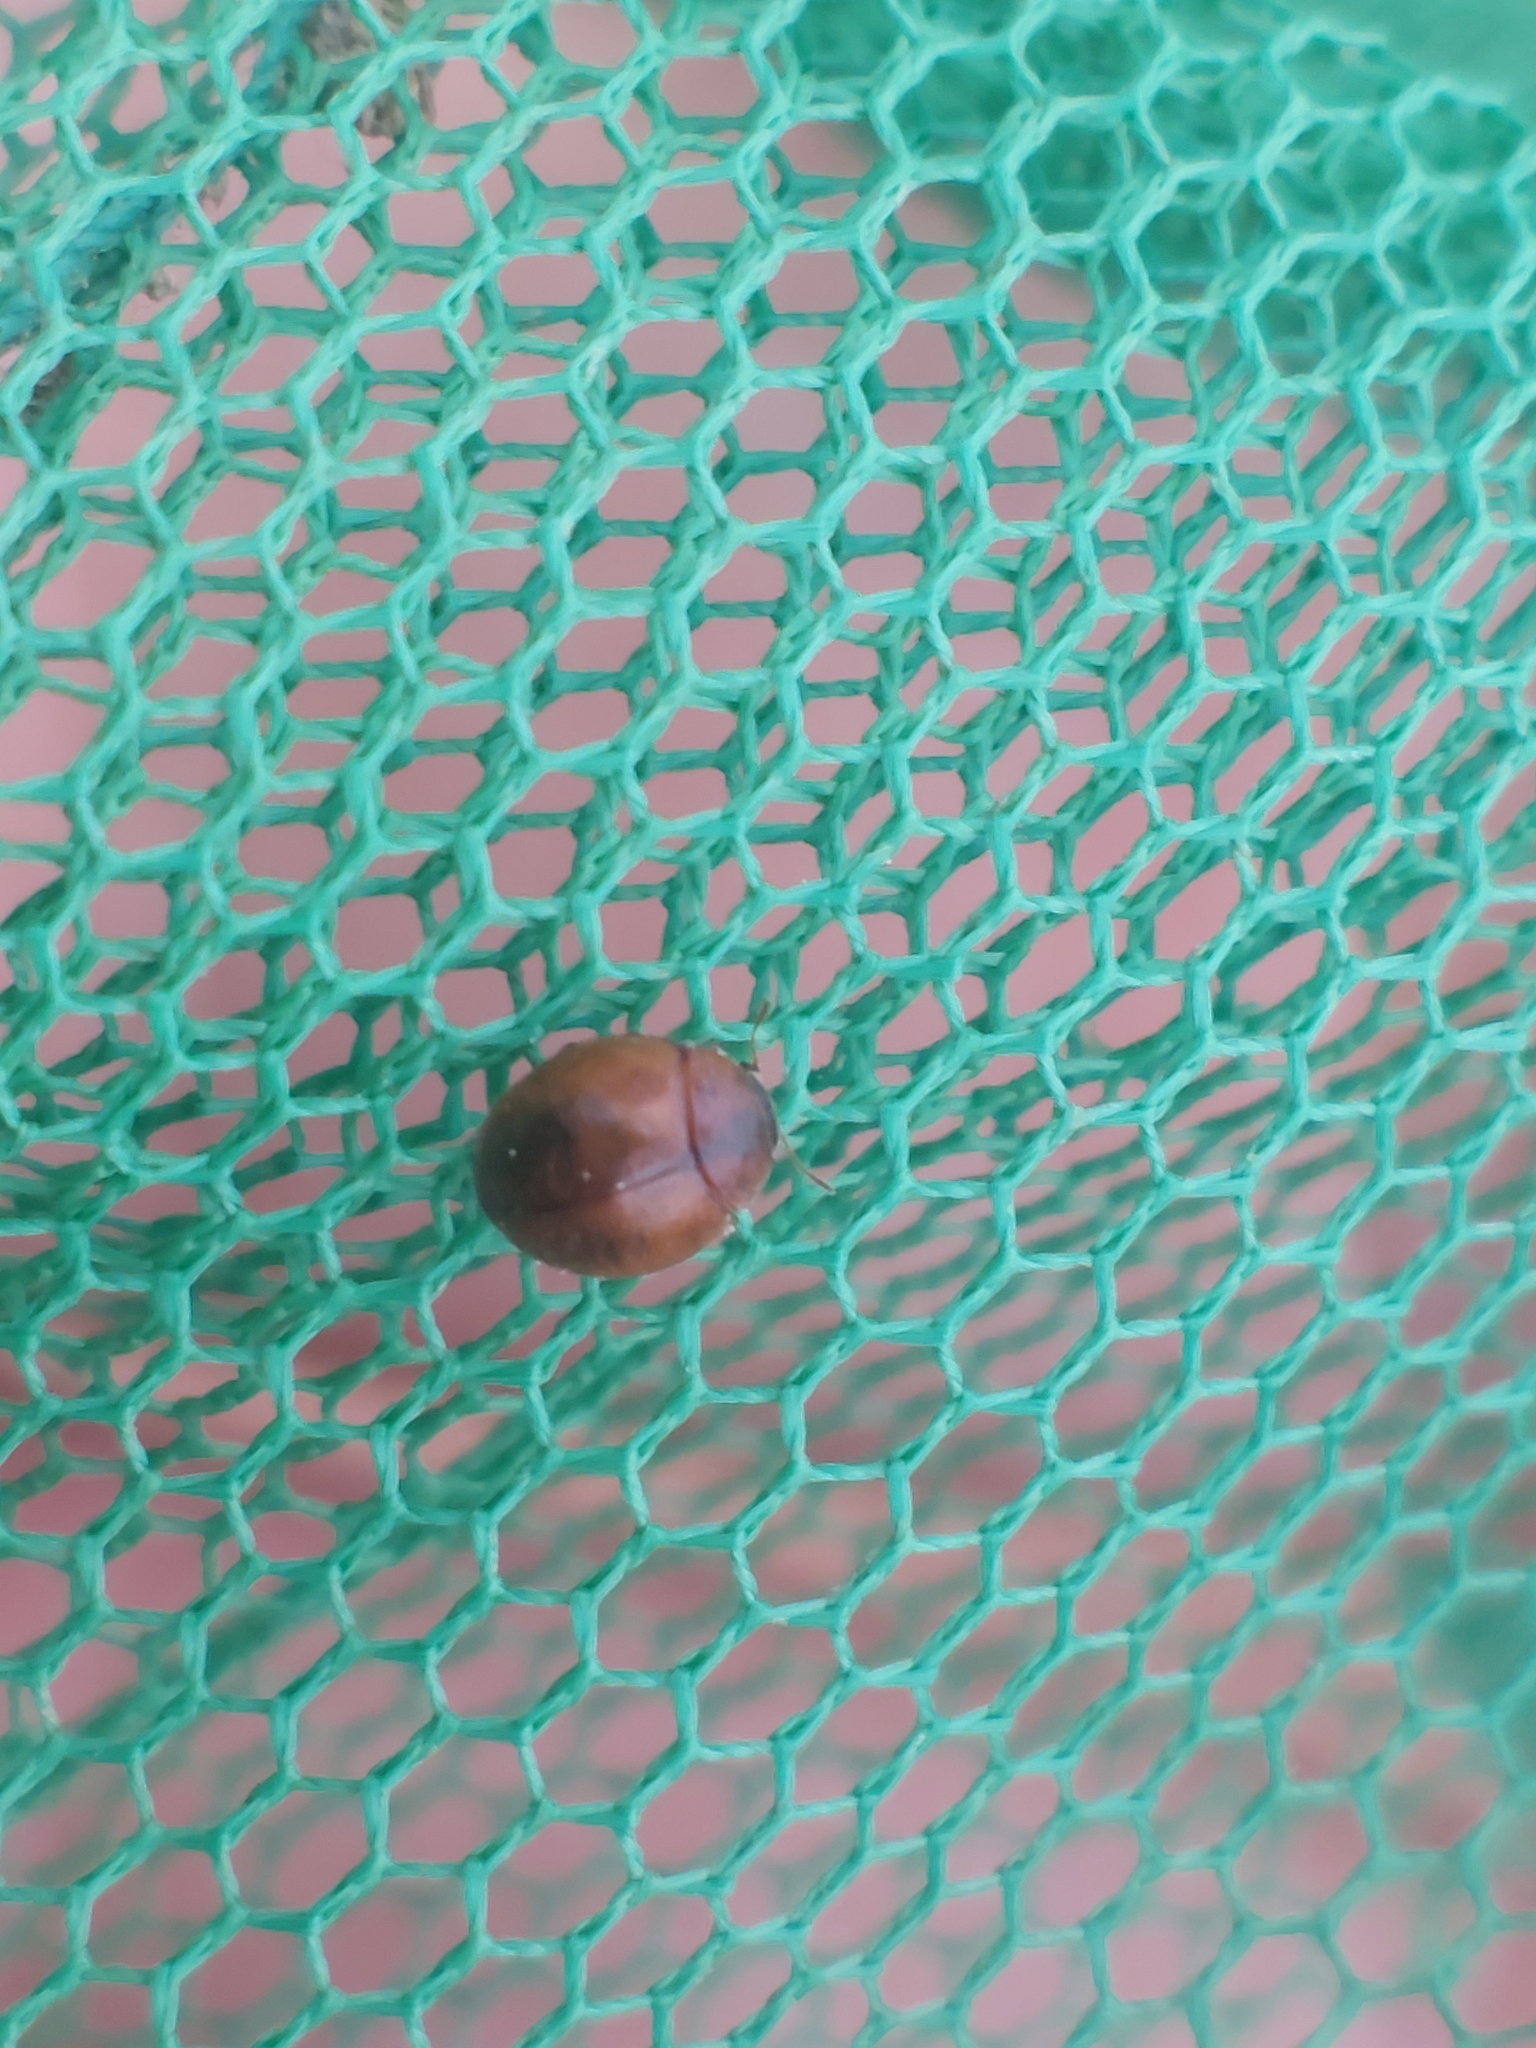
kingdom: Animalia
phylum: Arthropoda
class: Insecta
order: Coleoptera
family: Coccinellidae
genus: Cynegetis
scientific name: Cynegetis impunctata
